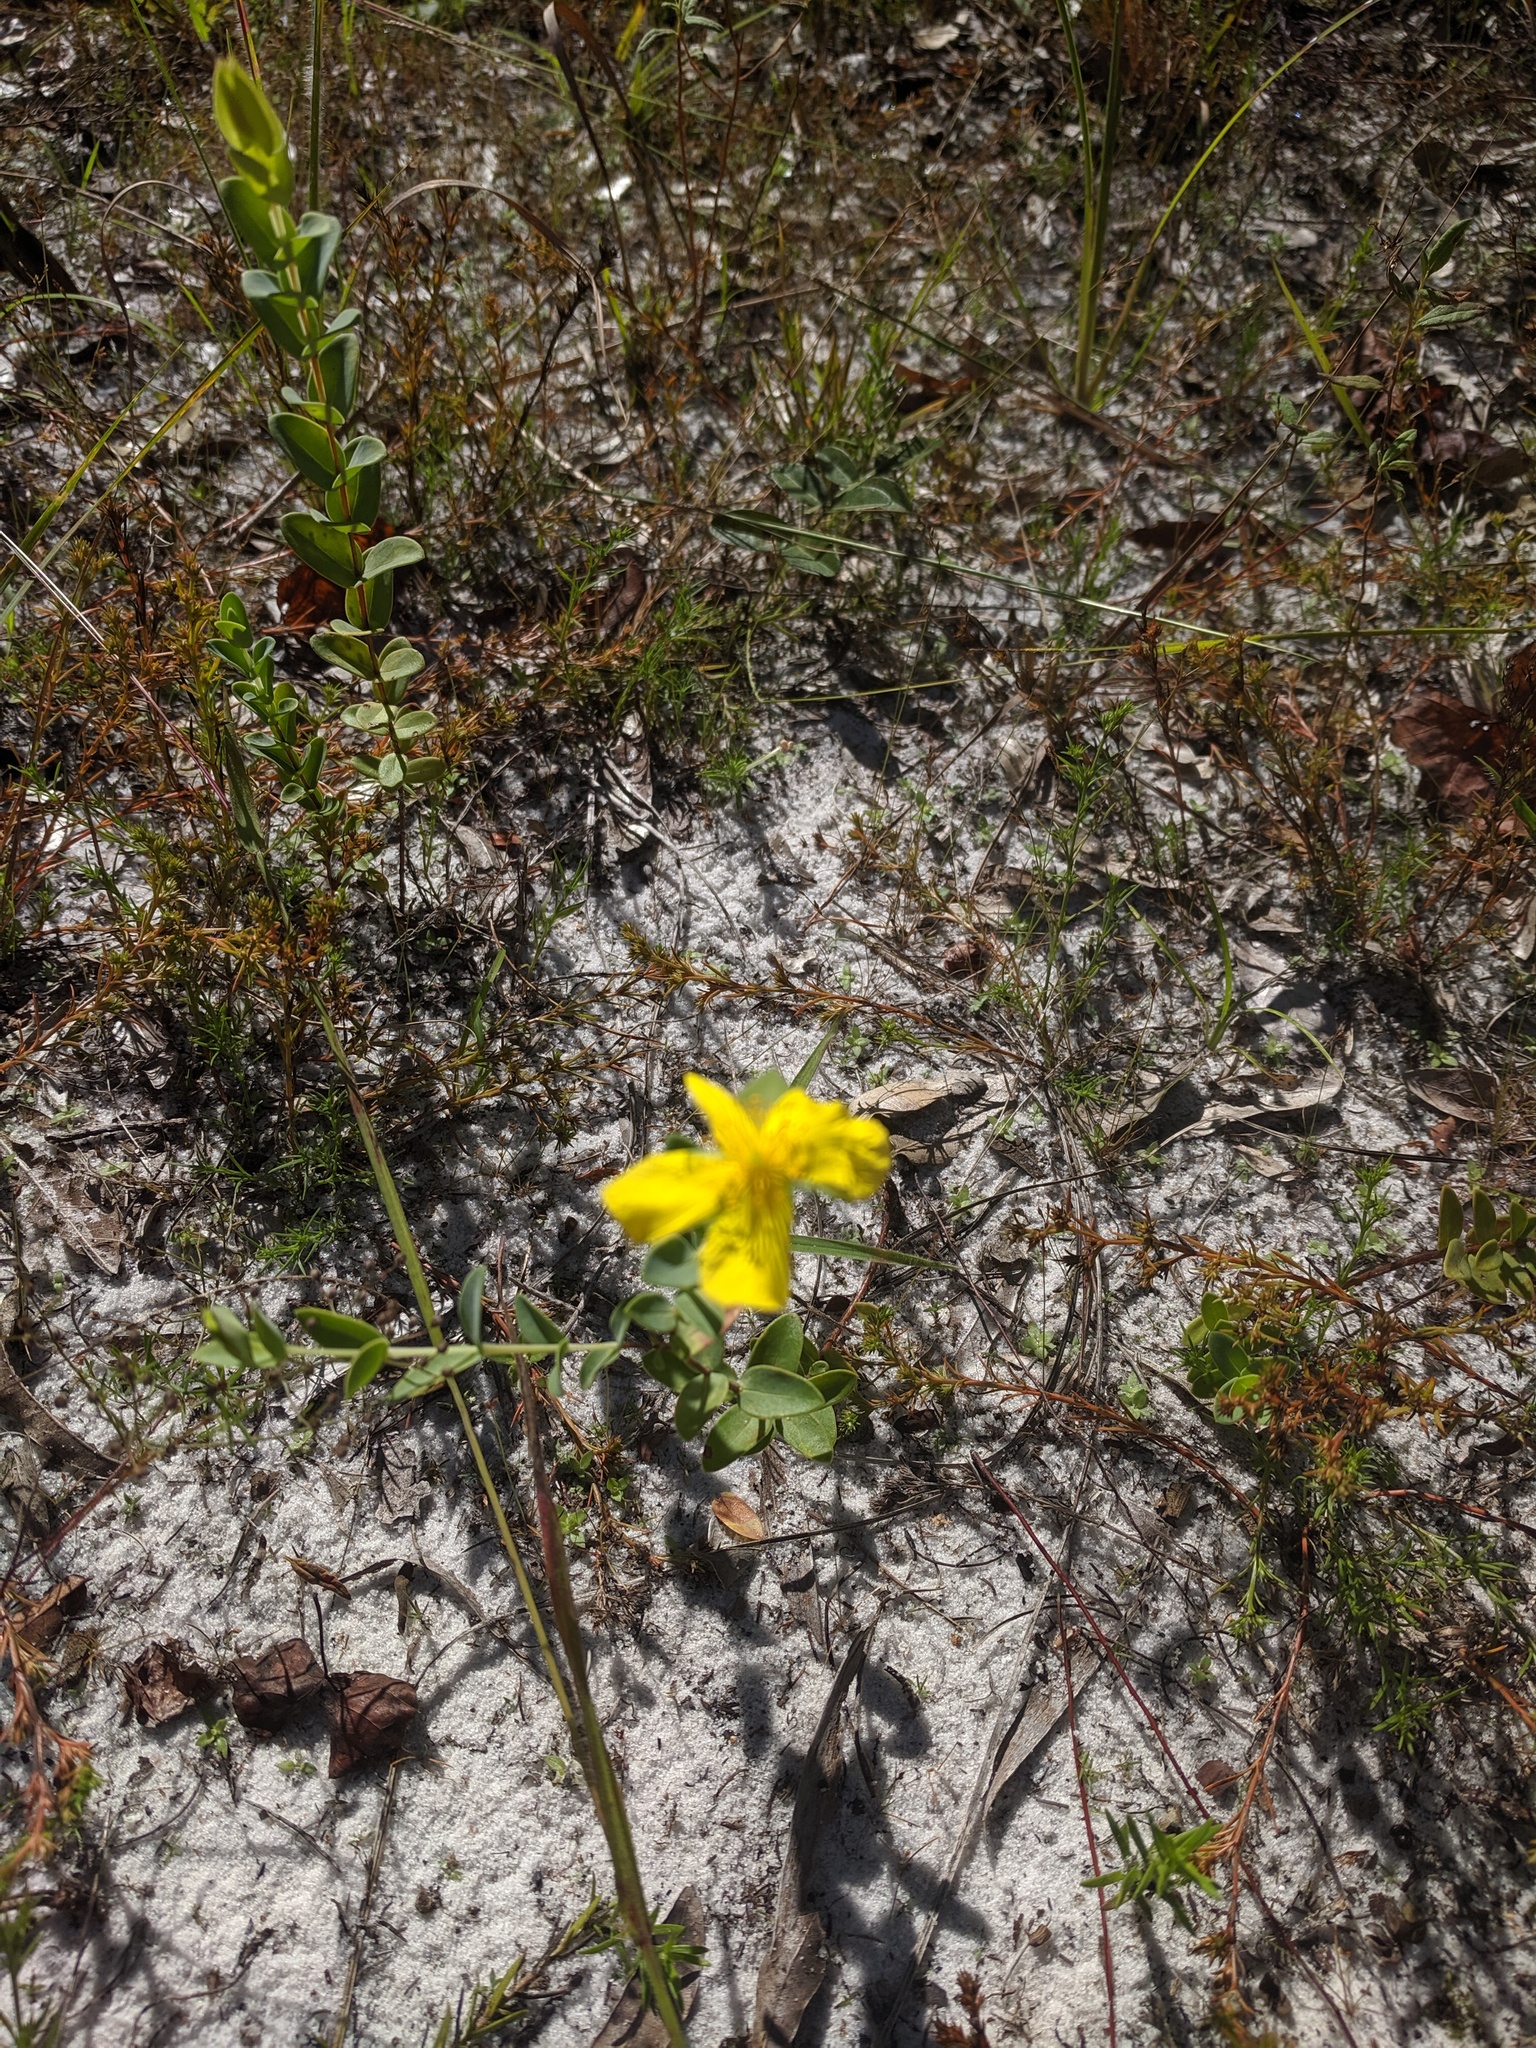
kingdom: Plantae
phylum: Tracheophyta
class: Magnoliopsida
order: Malpighiales
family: Hypericaceae
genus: Hypericum
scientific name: Hypericum tetrapetalum
